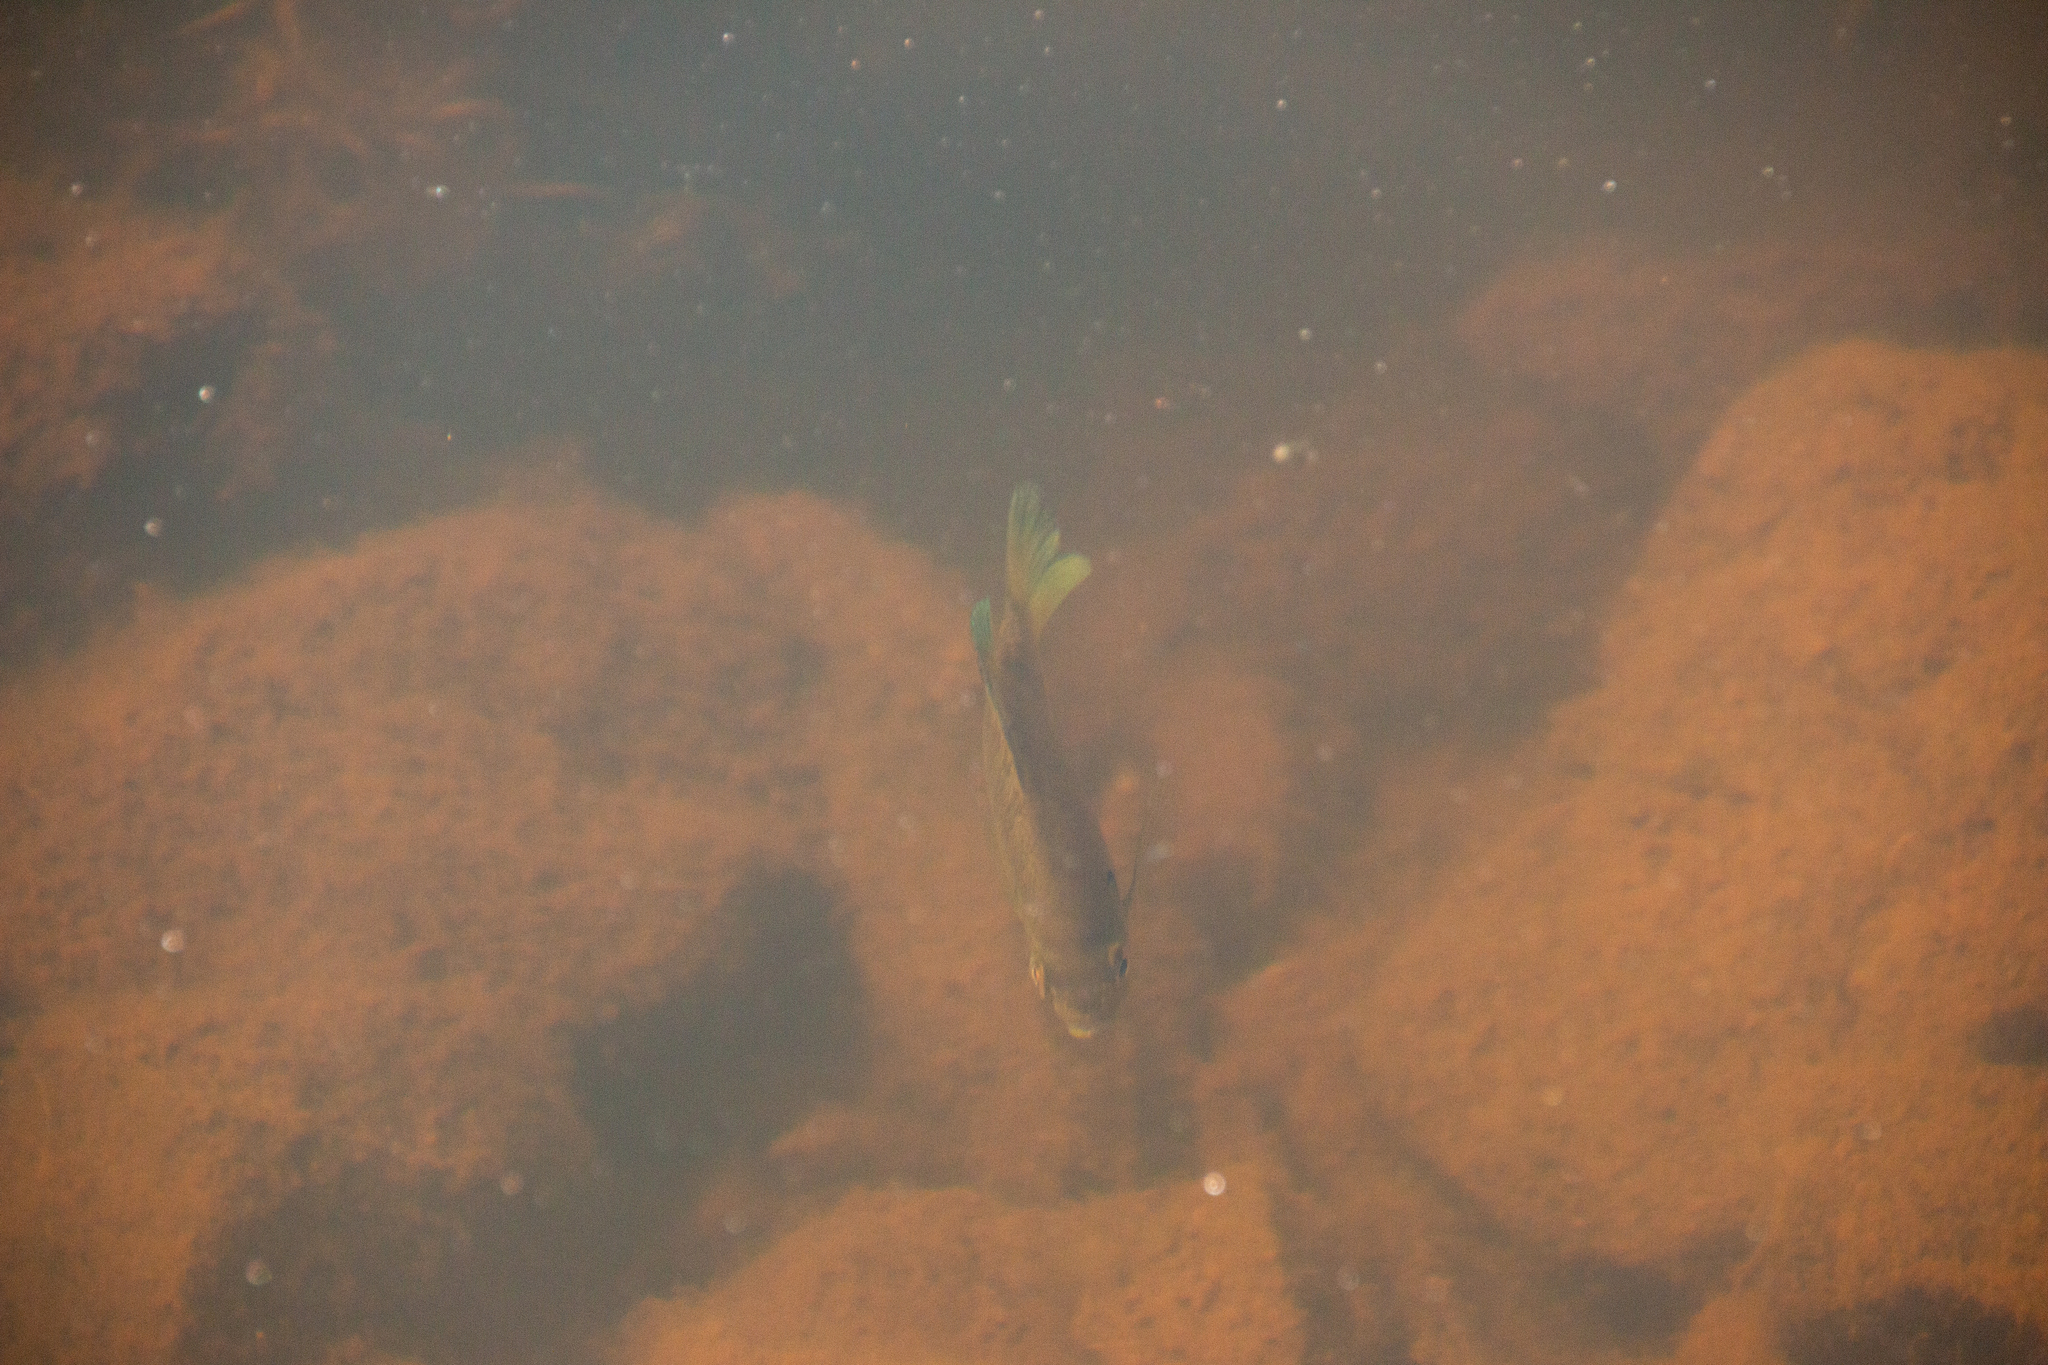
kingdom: Animalia
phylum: Chordata
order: Perciformes
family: Centrarchidae
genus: Lepomis
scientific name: Lepomis macrochirus
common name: Bluegill
